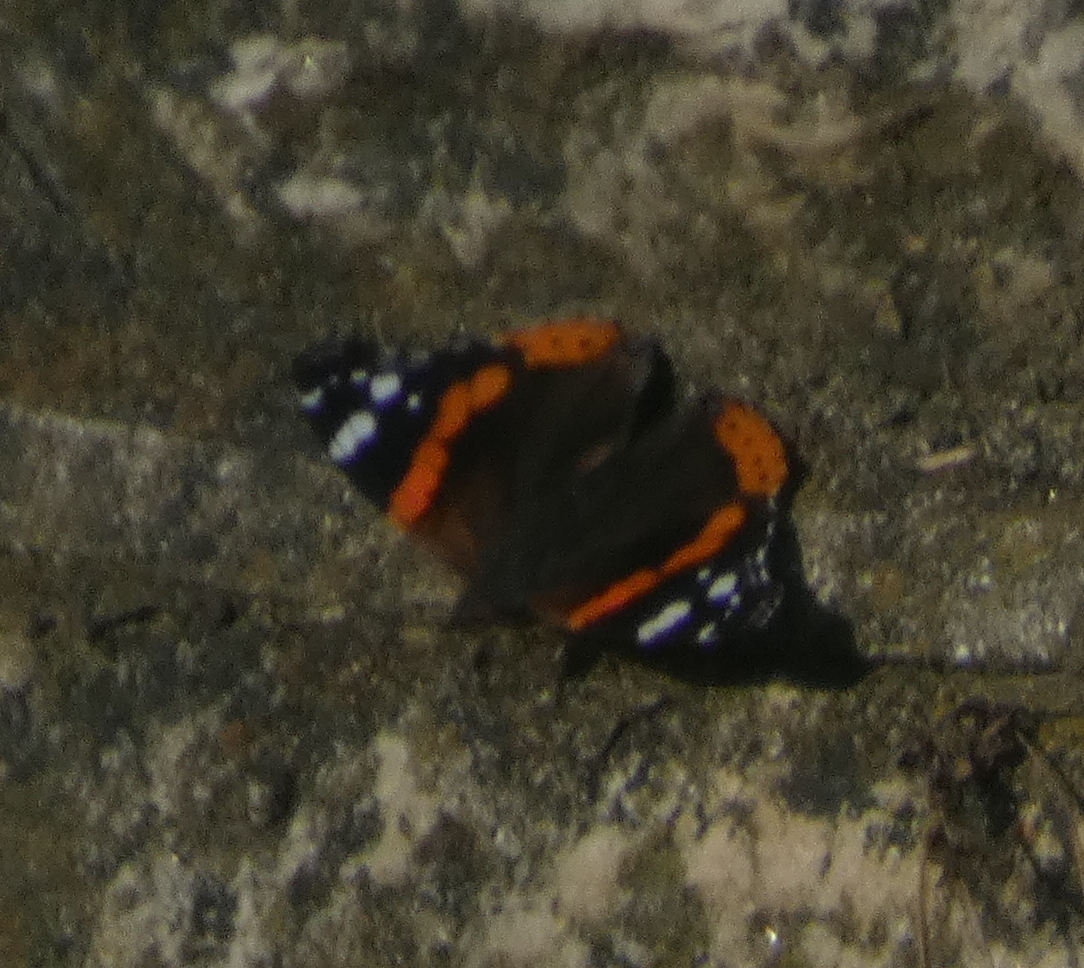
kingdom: Animalia
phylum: Arthropoda
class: Insecta
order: Lepidoptera
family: Nymphalidae
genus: Vanessa
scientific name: Vanessa atalanta
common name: Red admiral
